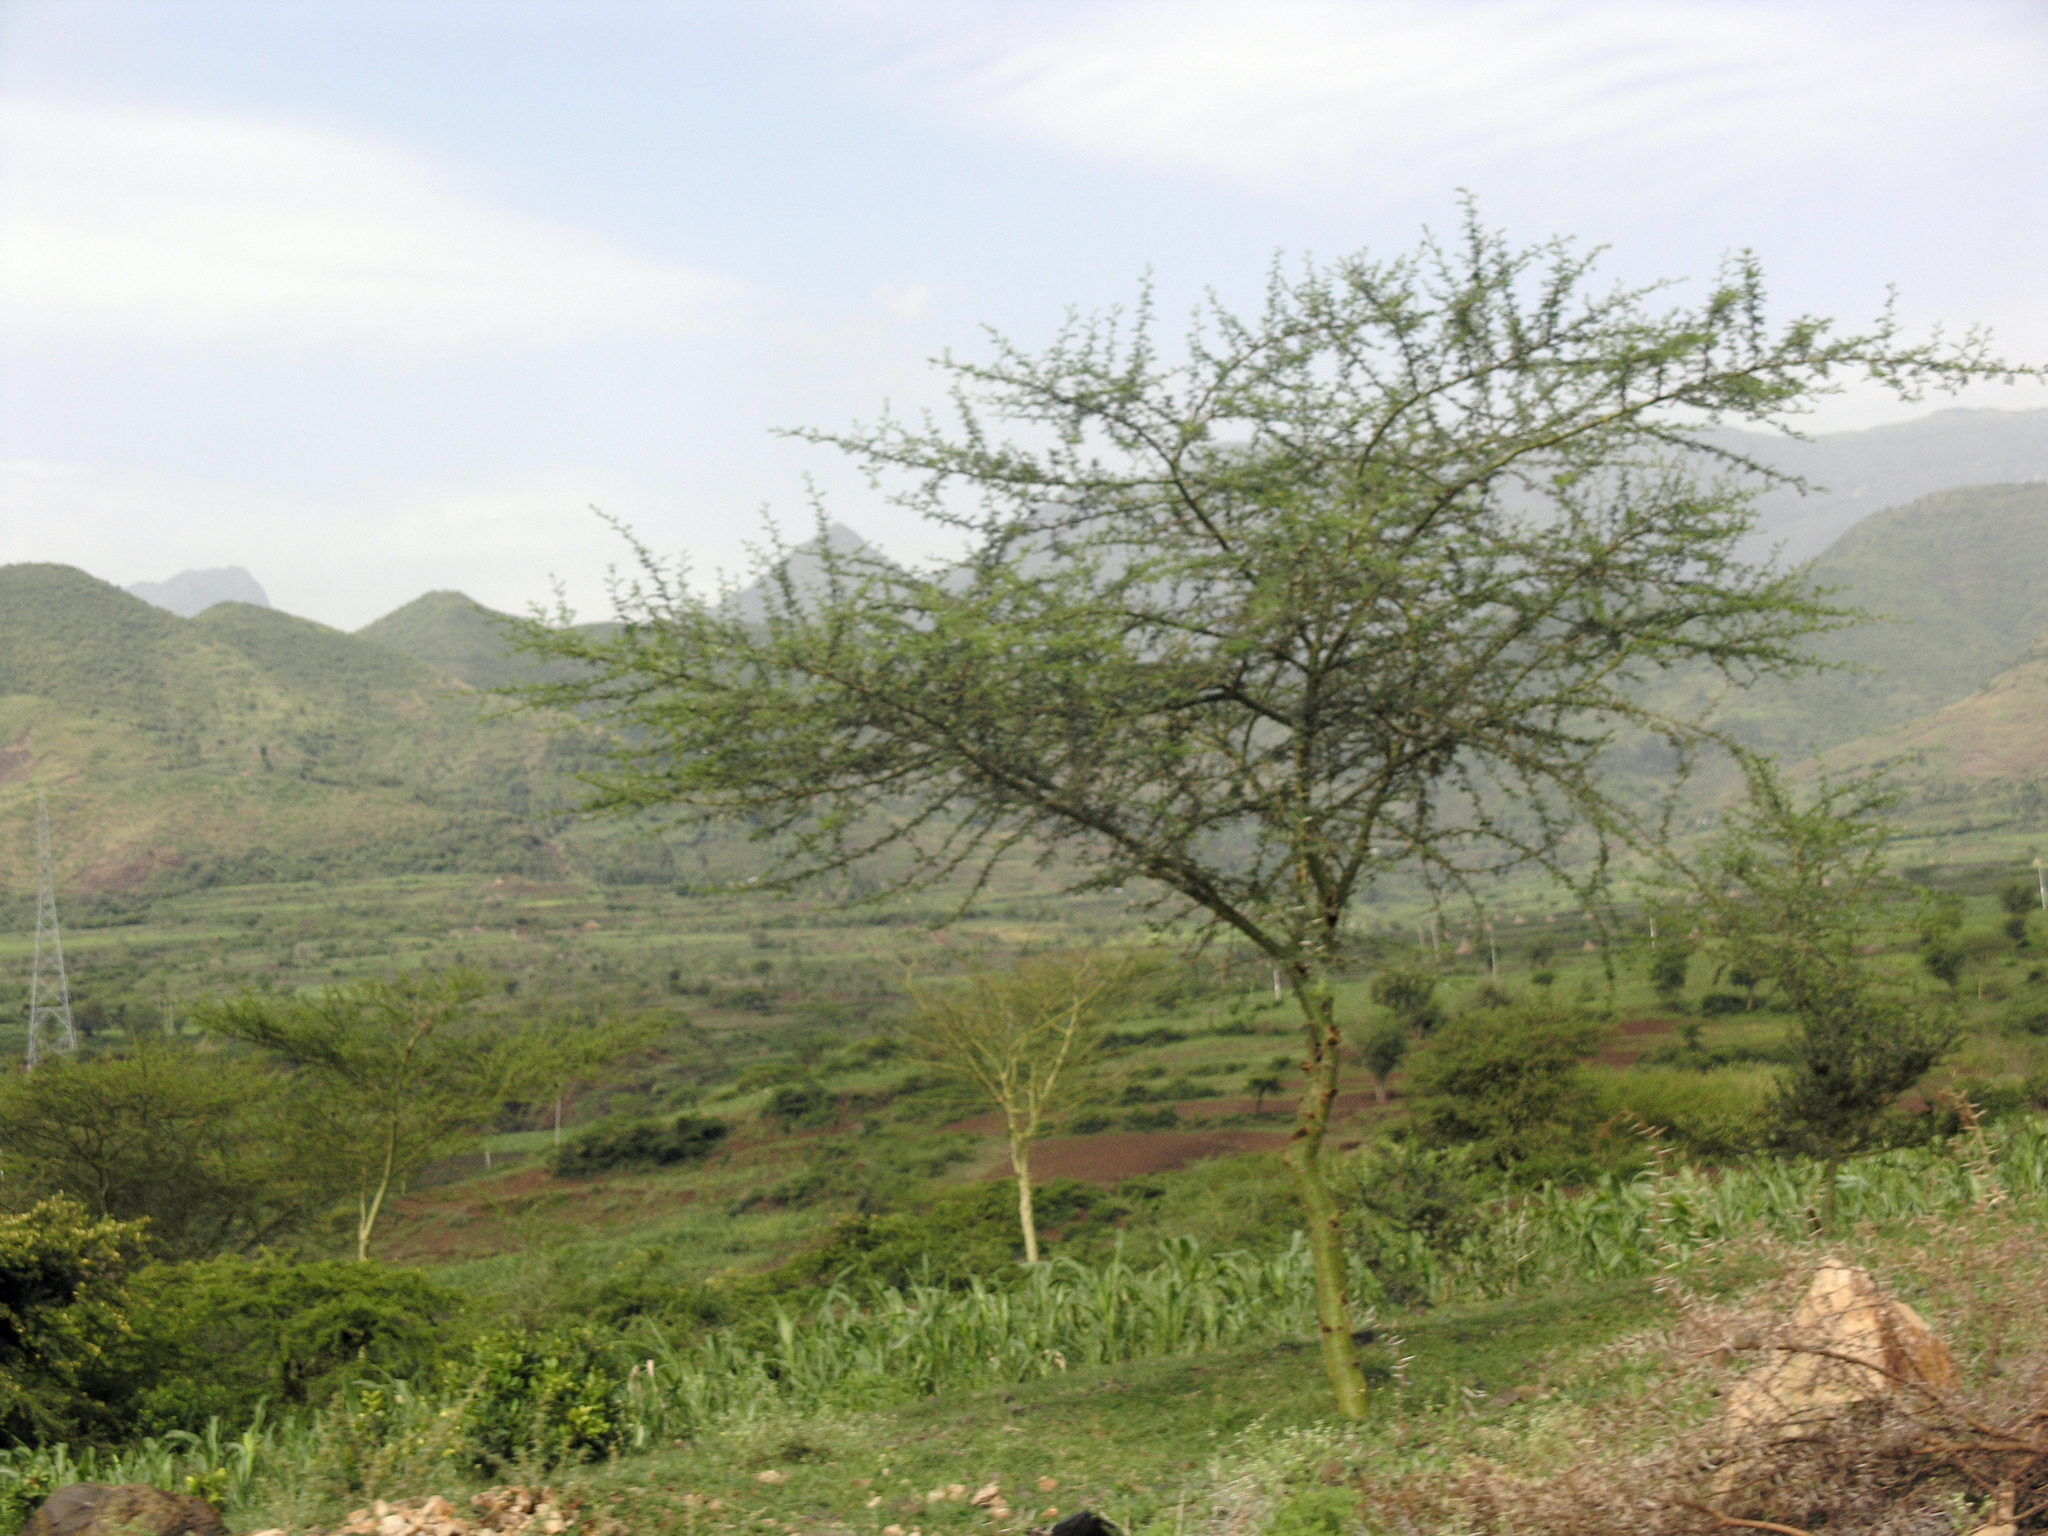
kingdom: Plantae
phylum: Tracheophyta
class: Magnoliopsida
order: Fabales
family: Fabaceae
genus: Vachellia
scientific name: Vachellia hockii
